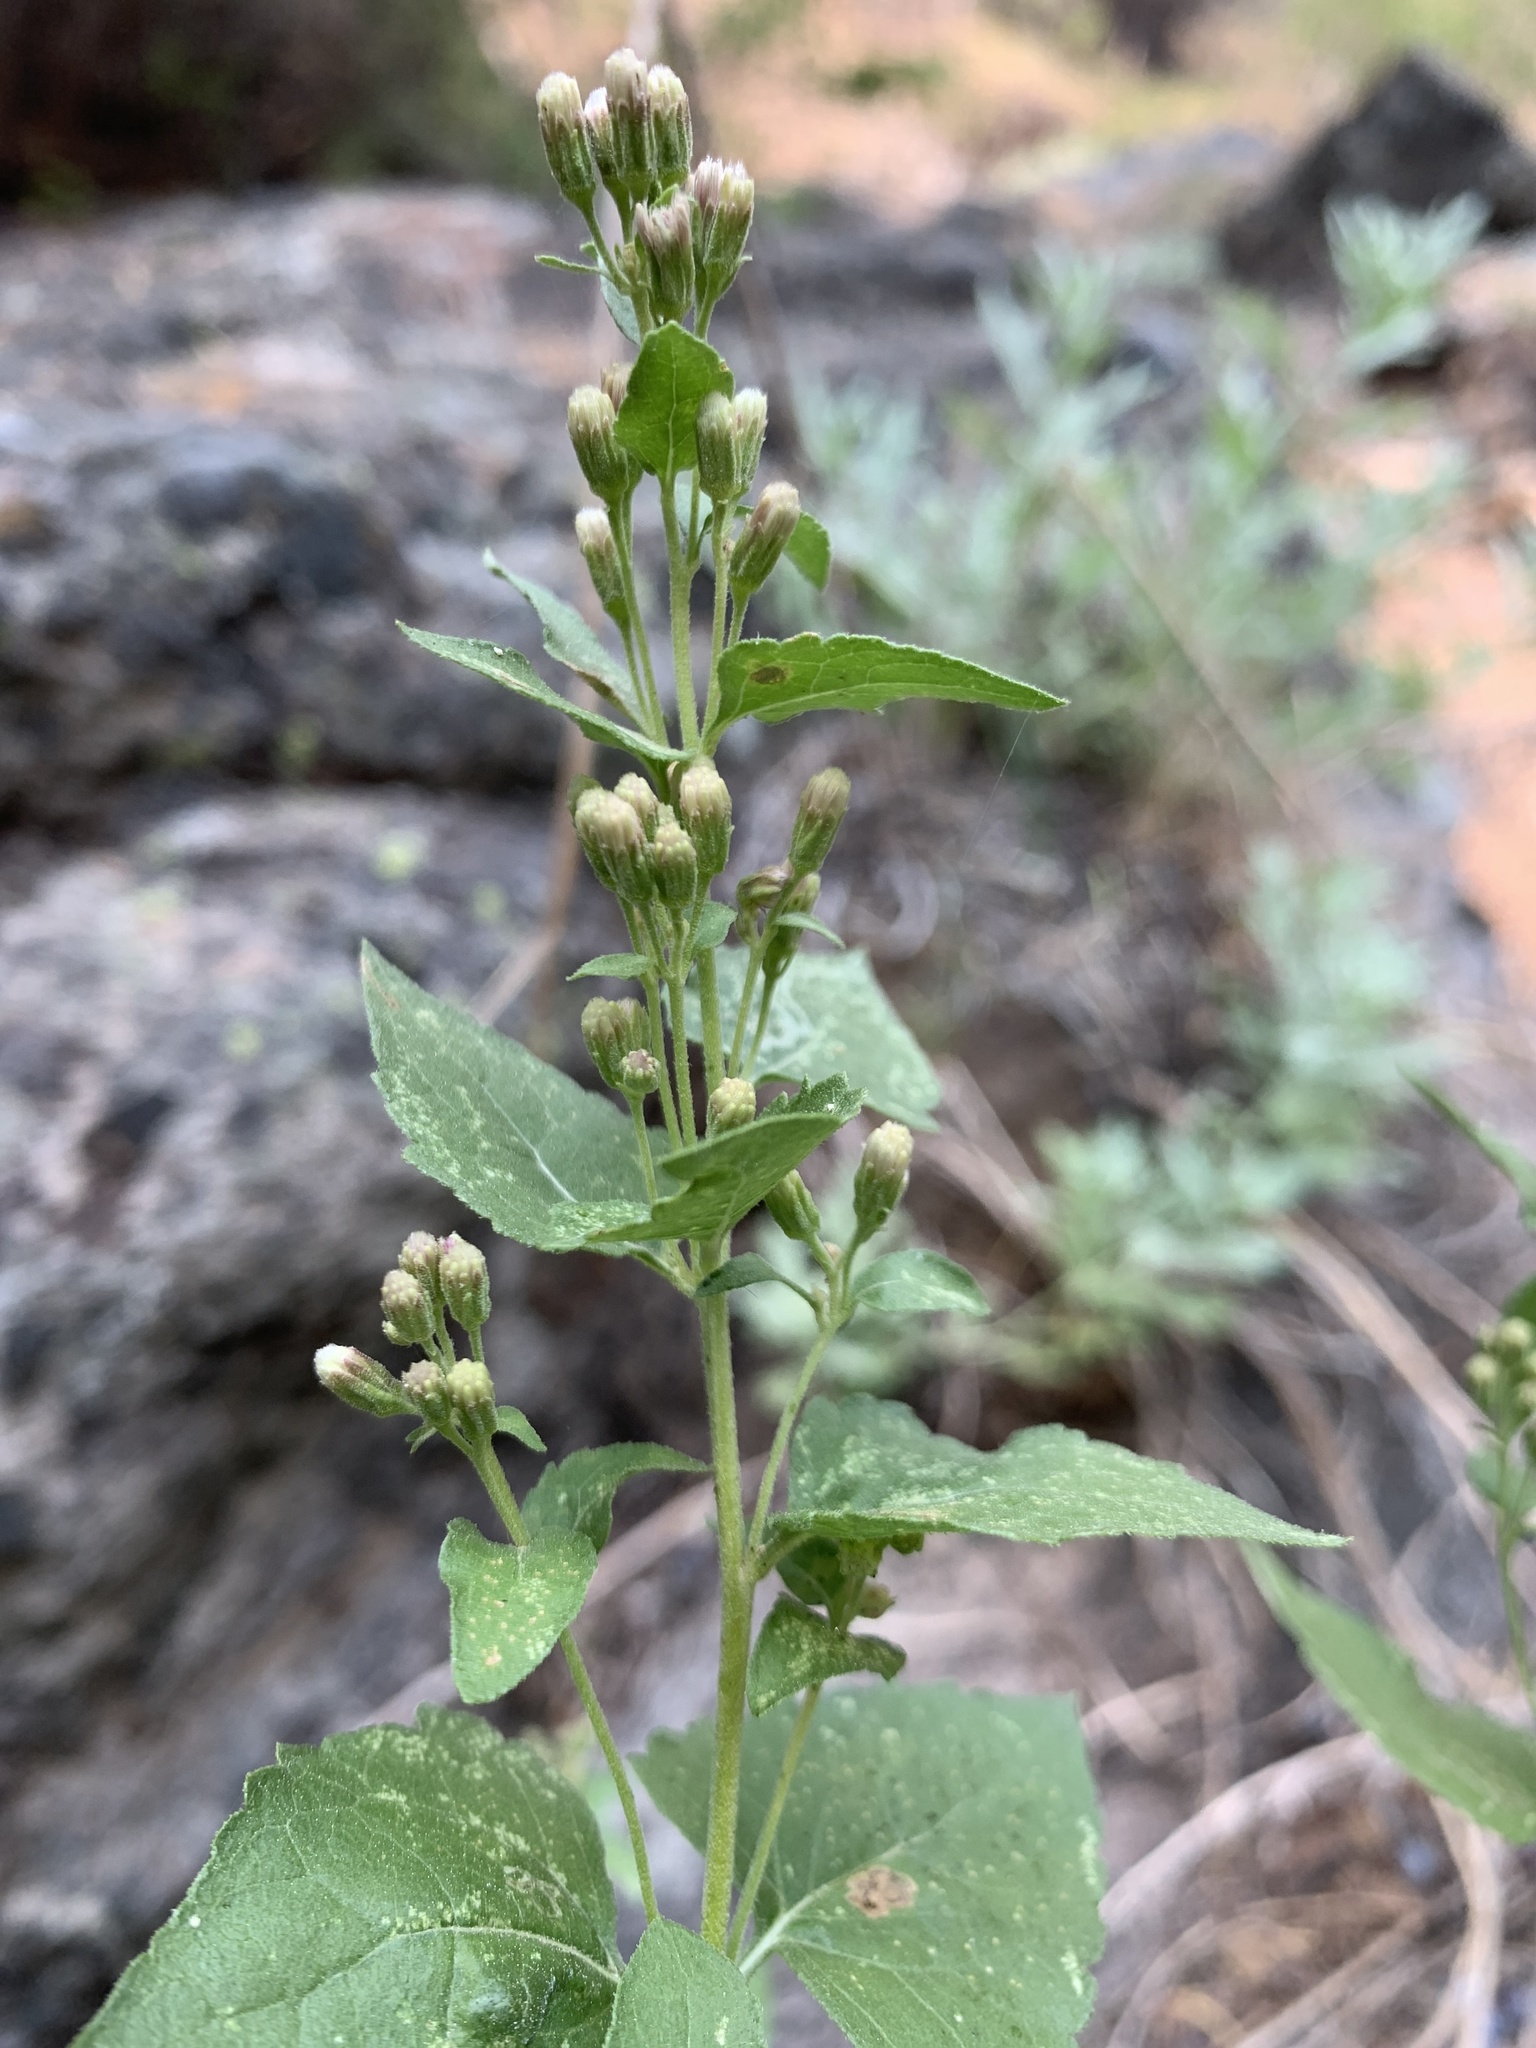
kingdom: Plantae
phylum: Tracheophyta
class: Magnoliopsida
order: Asterales
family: Asteraceae
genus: Ageratina
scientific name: Ageratina occidentalis
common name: Western snakeroot
